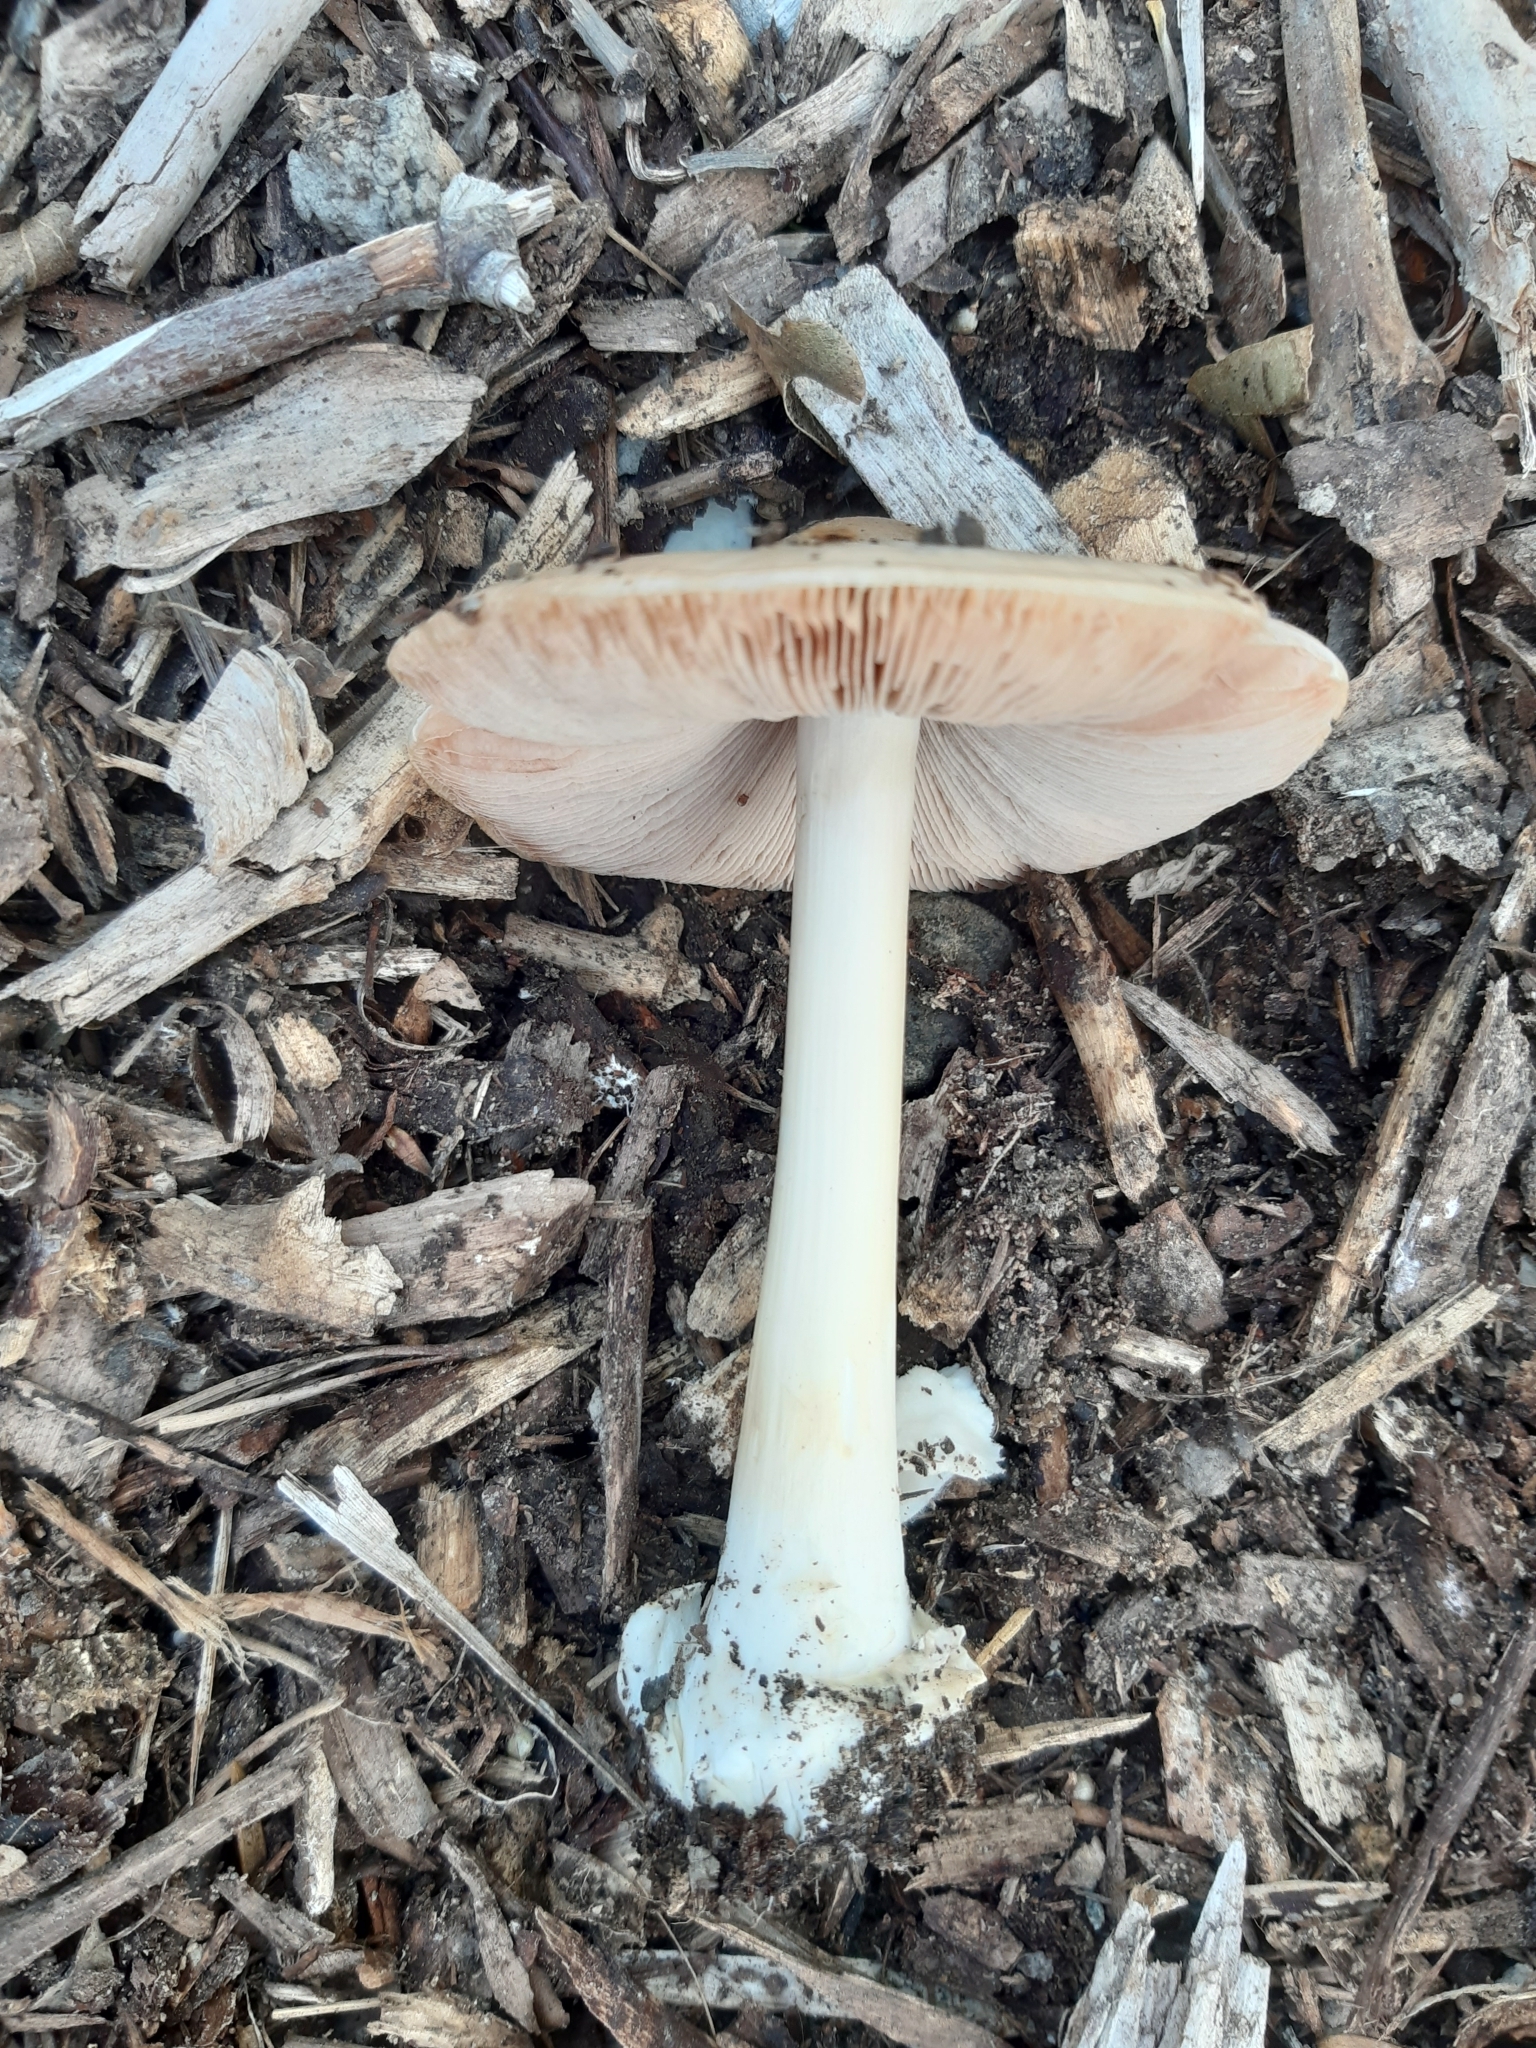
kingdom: Fungi
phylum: Basidiomycota
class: Agaricomycetes
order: Agaricales
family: Pluteaceae
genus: Volvopluteus
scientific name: Volvopluteus gloiocephalus
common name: Stubble rosegill
